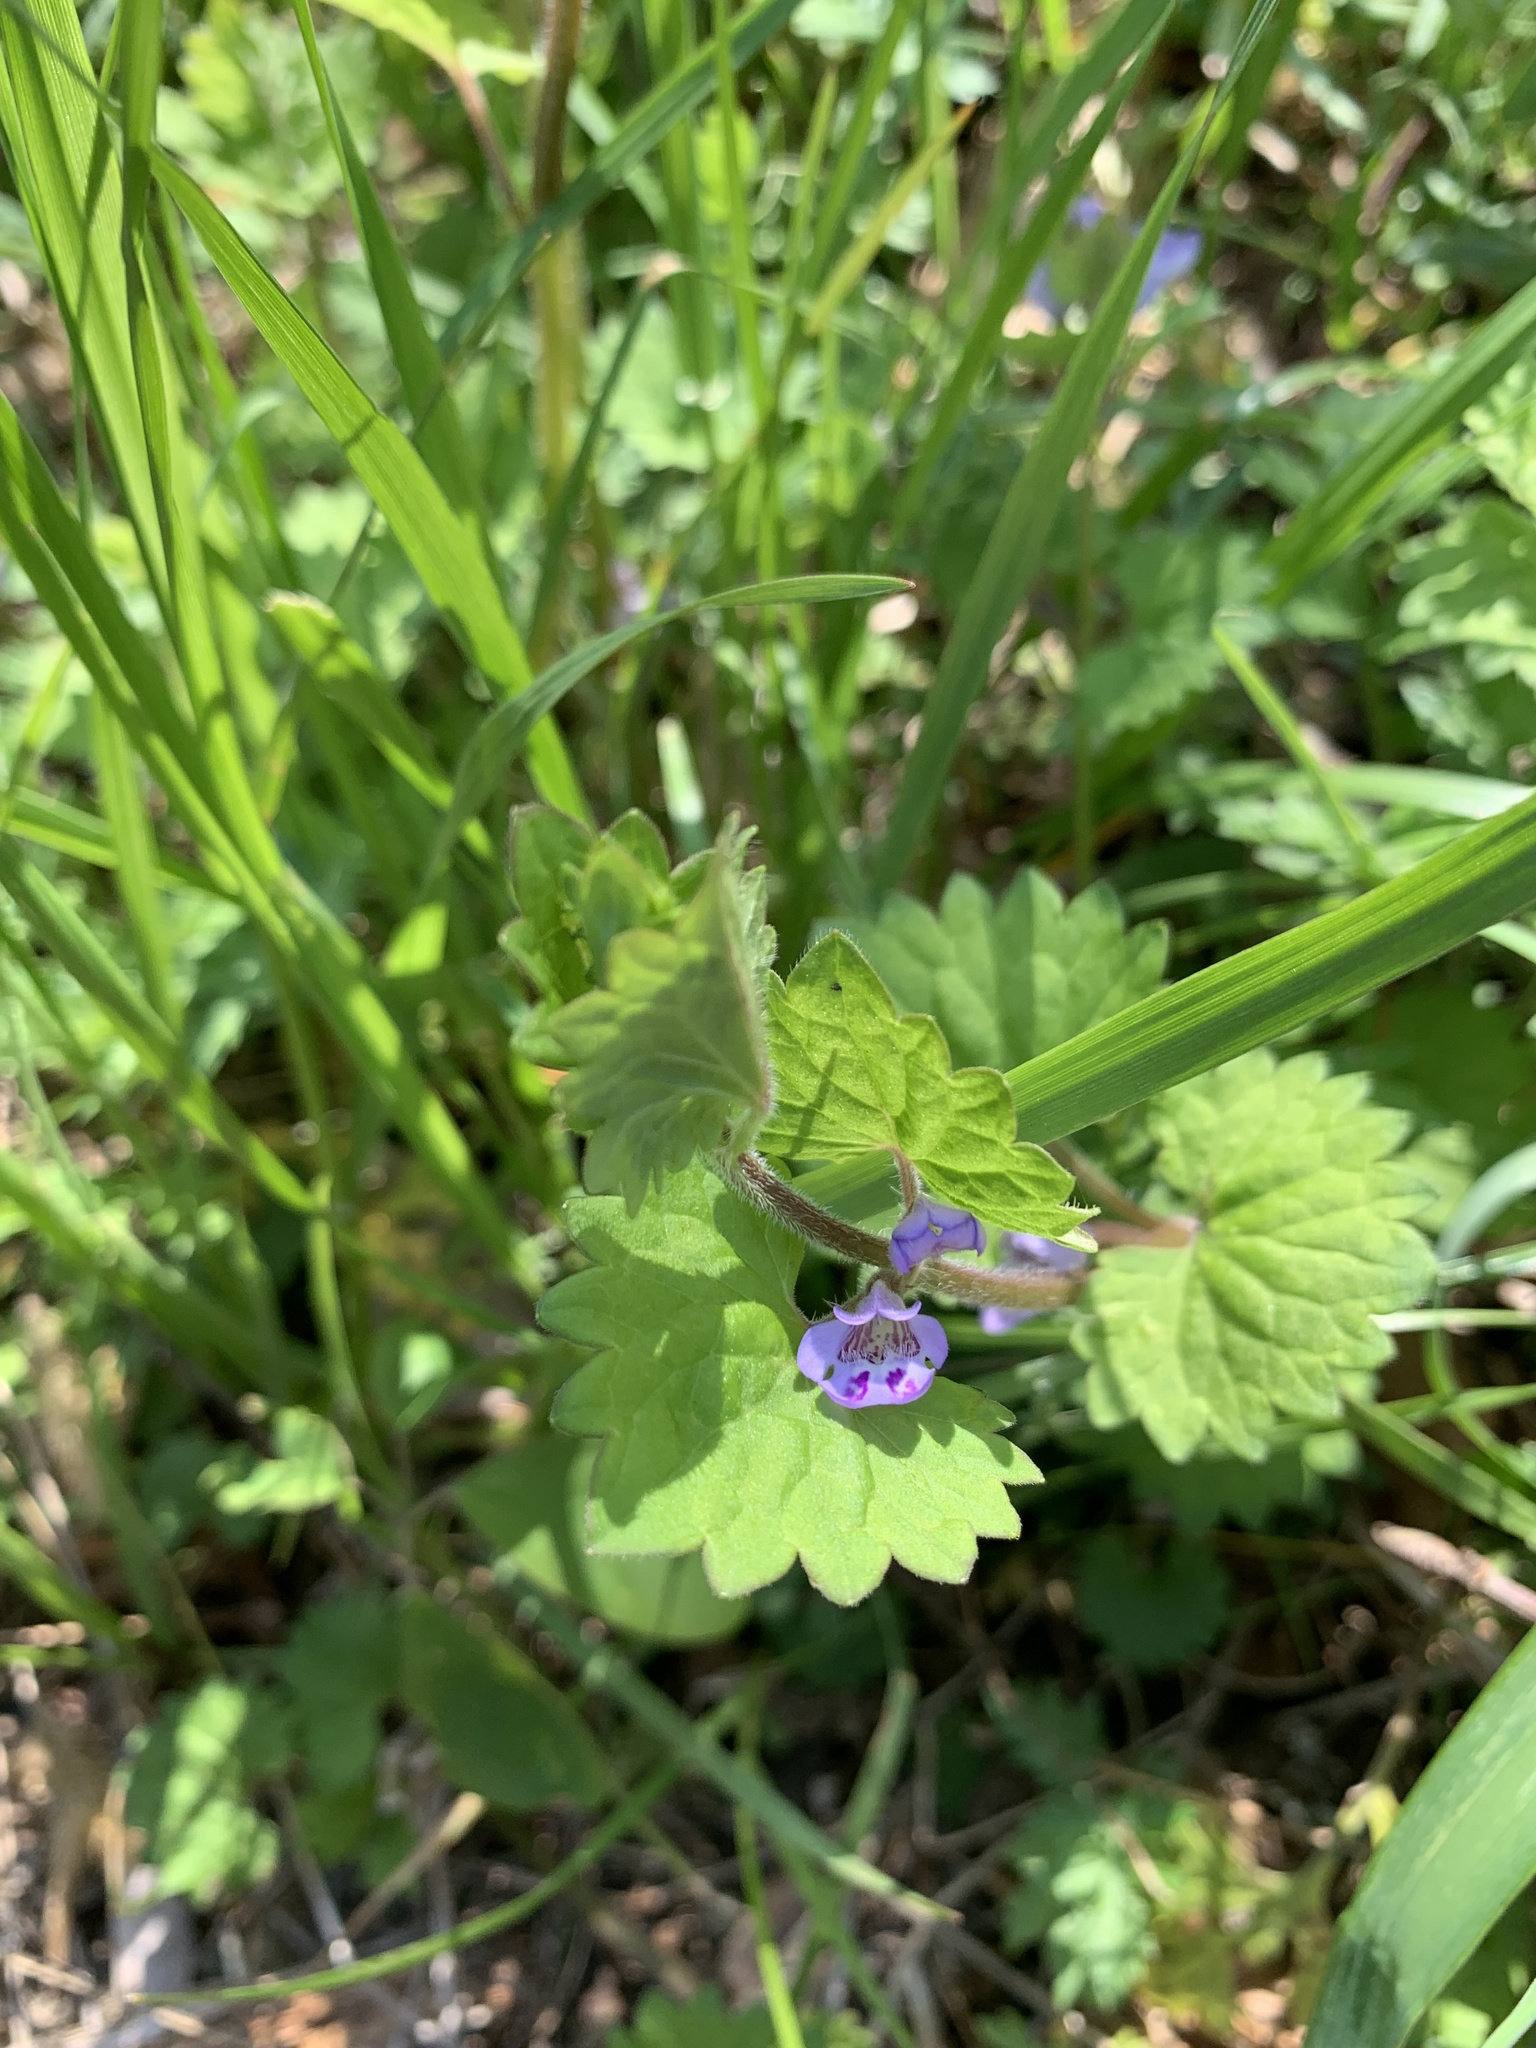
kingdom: Plantae
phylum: Tracheophyta
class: Magnoliopsida
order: Lamiales
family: Lamiaceae
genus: Glechoma
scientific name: Glechoma grandis
